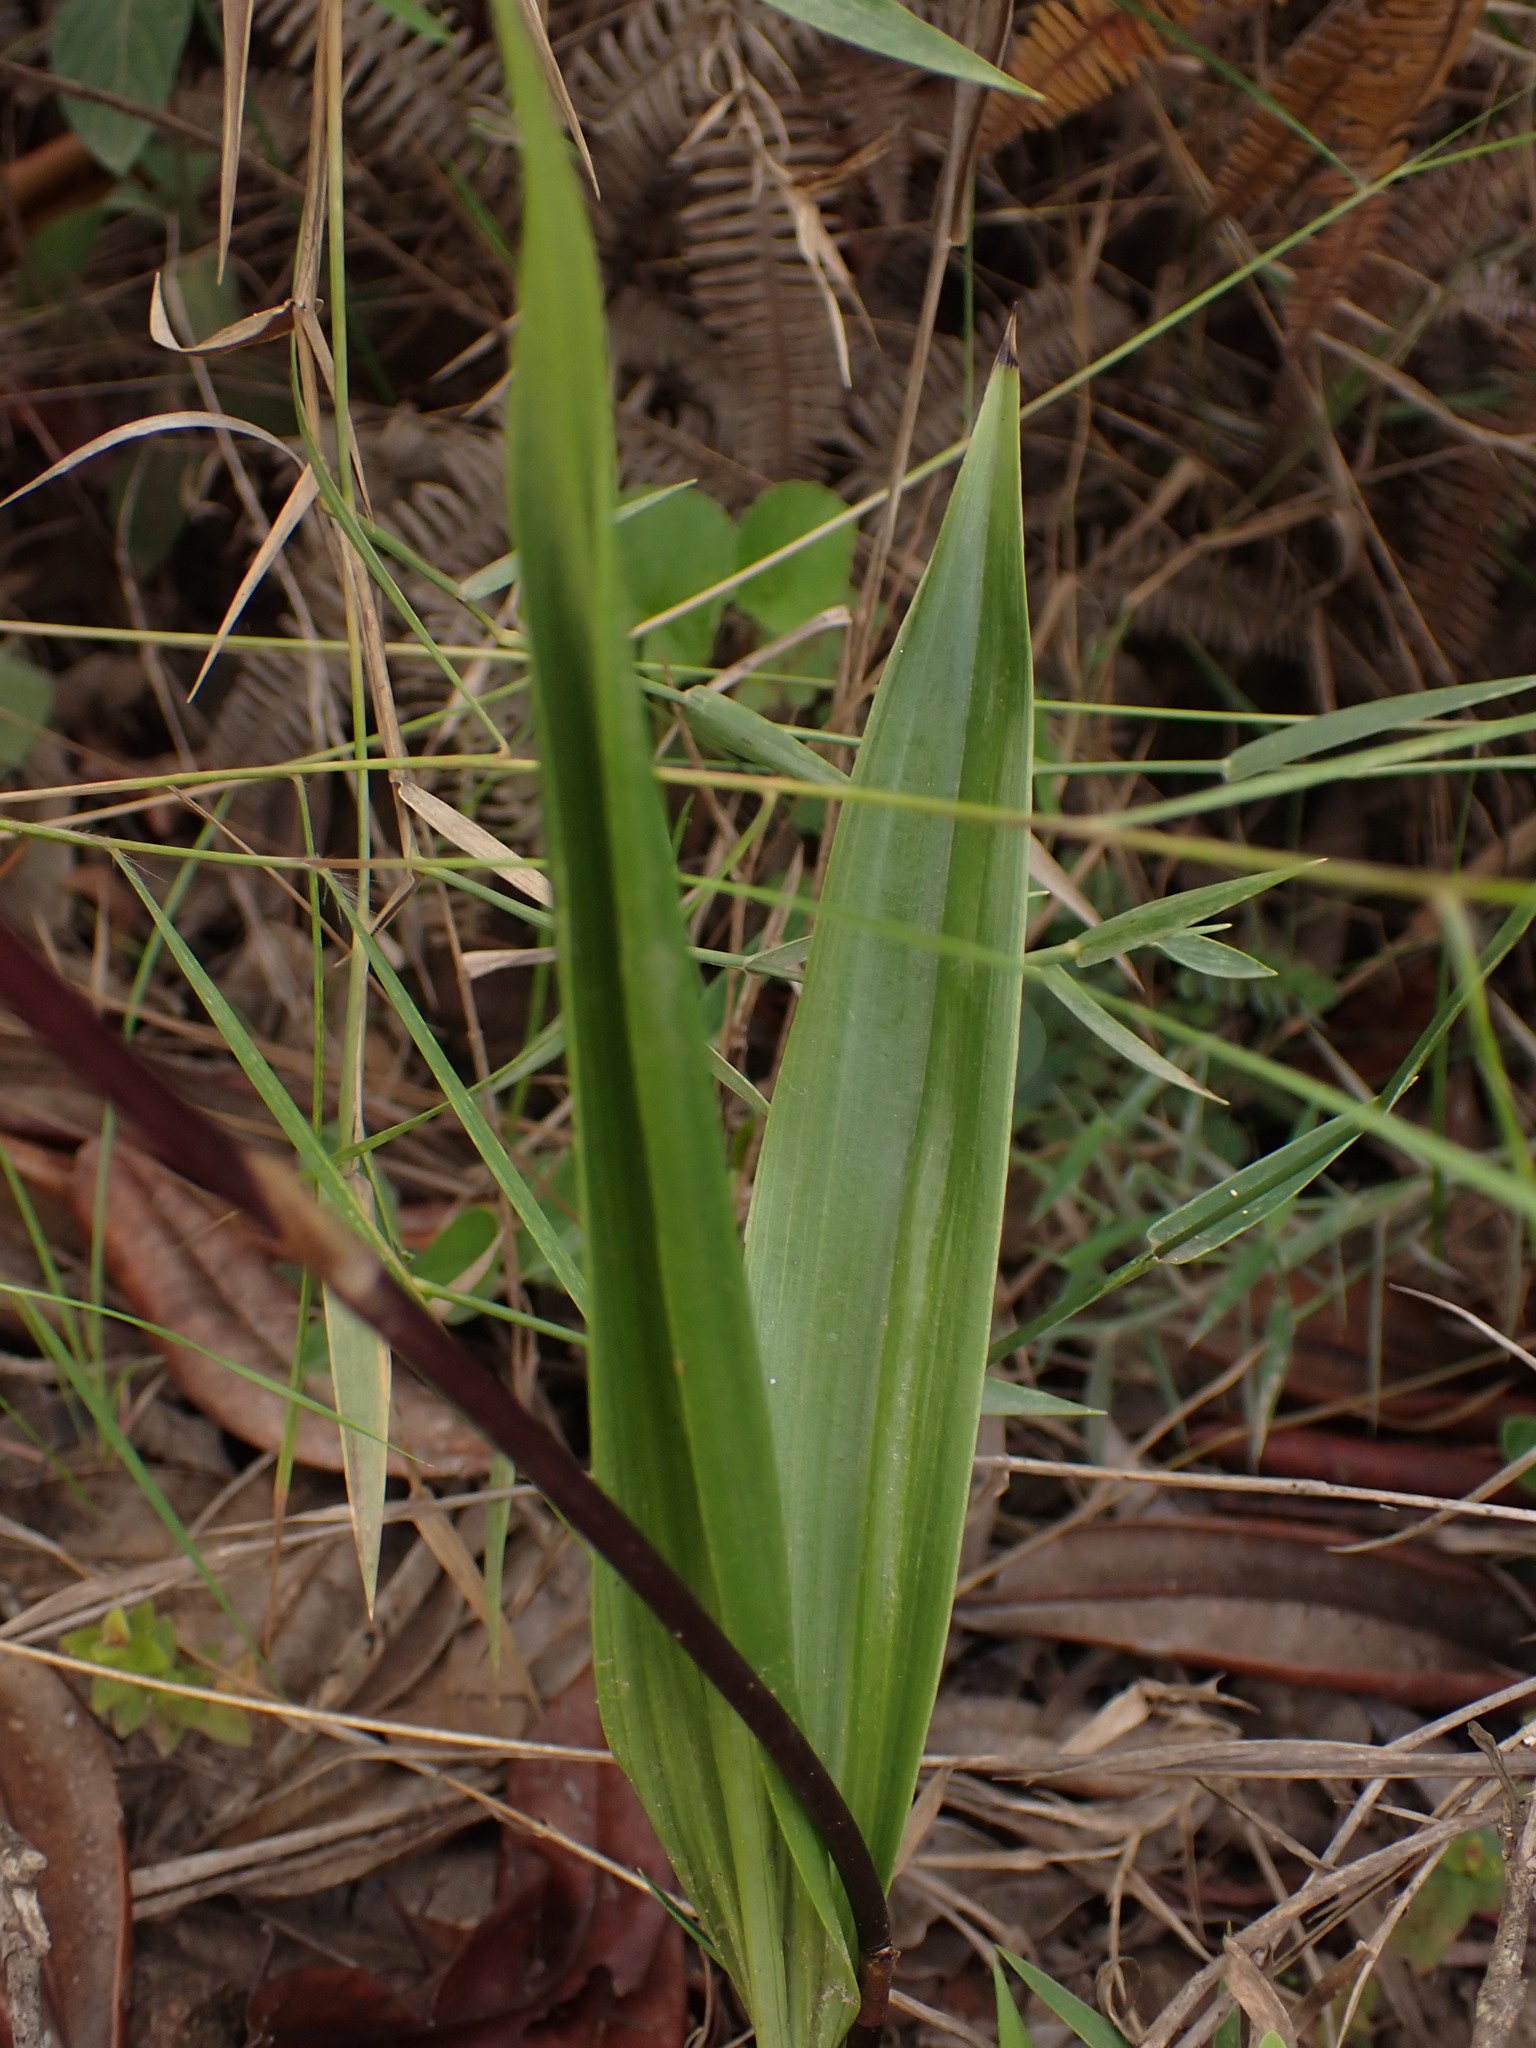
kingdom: Plantae
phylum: Tracheophyta
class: Liliopsida
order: Asparagales
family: Orchidaceae
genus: Koellensteinia
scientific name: Koellensteinia tricolor
